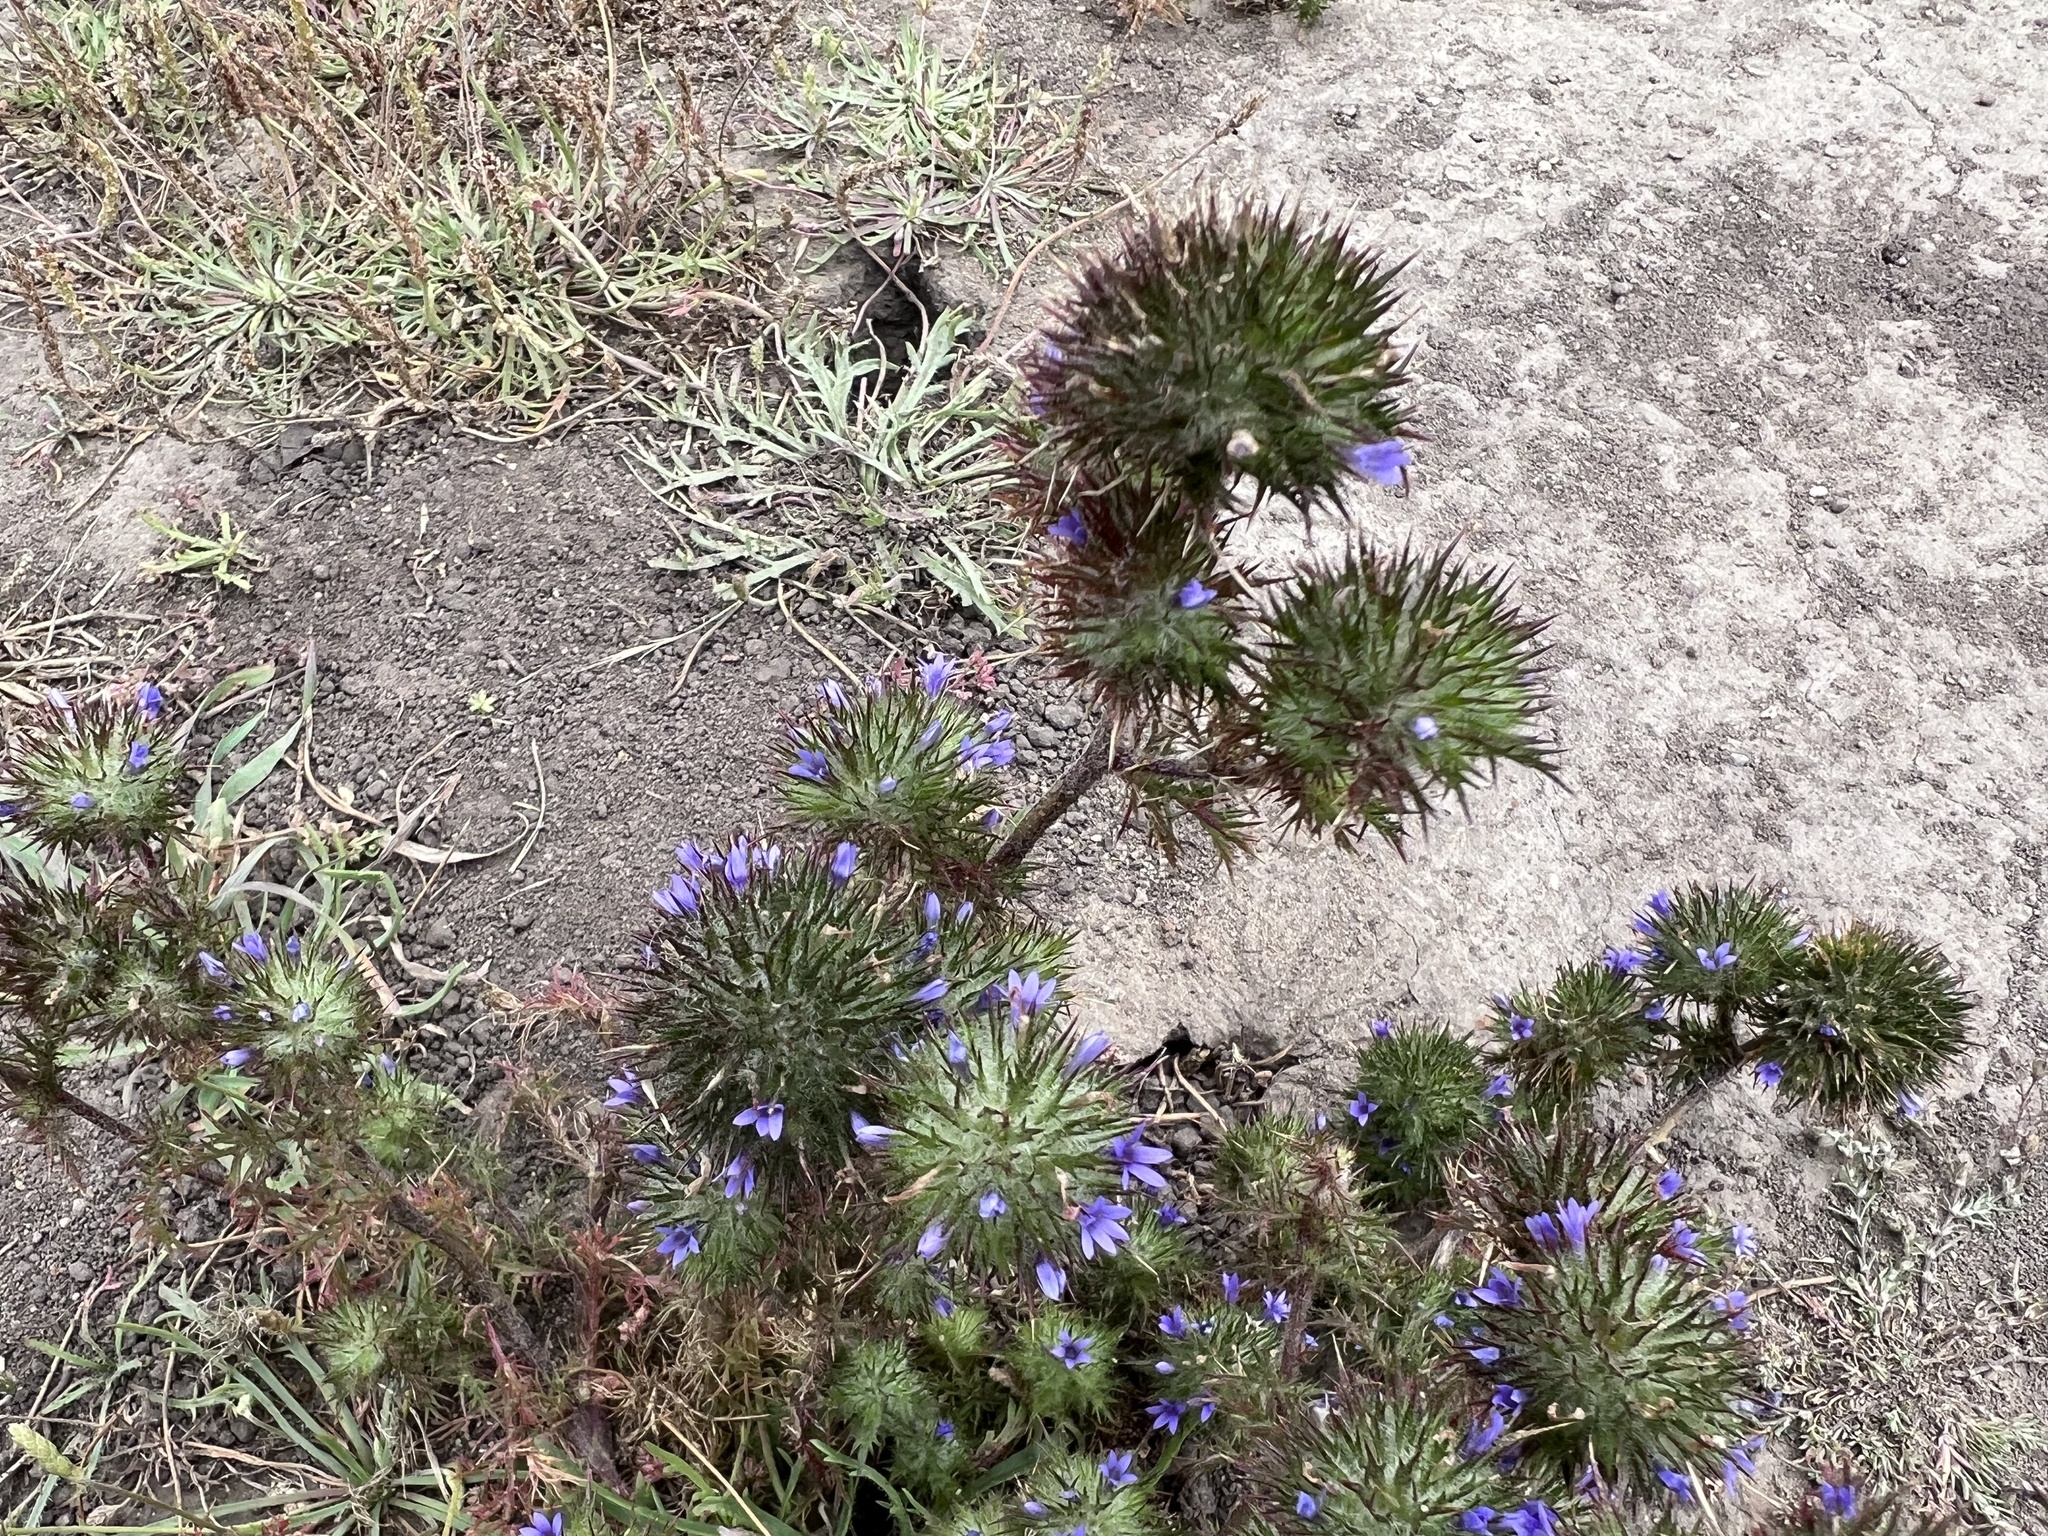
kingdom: Plantae
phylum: Tracheophyta
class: Magnoliopsida
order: Ericales
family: Polemoniaceae
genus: Navarretia
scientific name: Navarretia squarrosa
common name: Skunkweed
